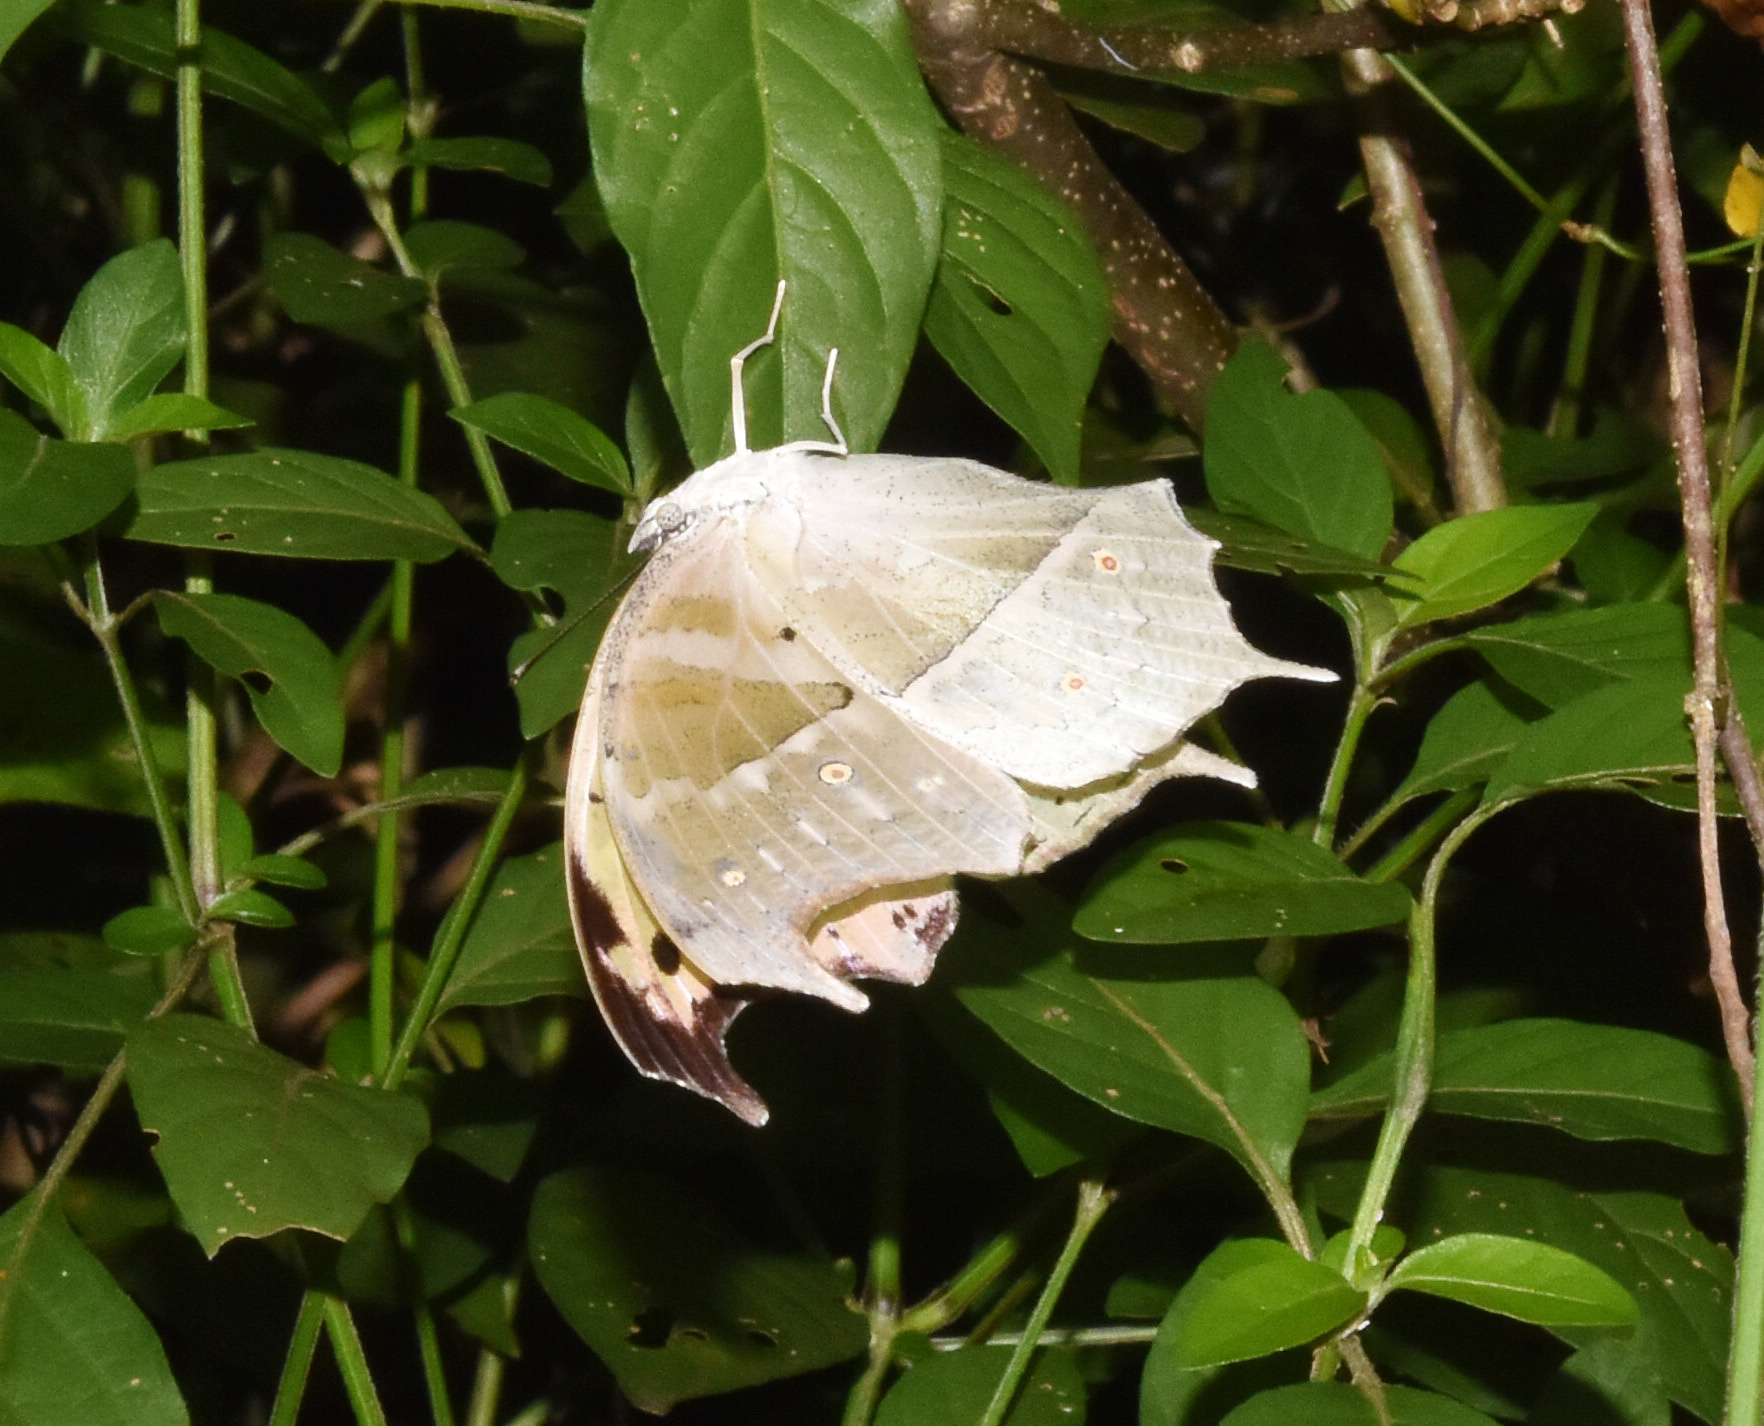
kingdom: Animalia
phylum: Arthropoda
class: Insecta
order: Lepidoptera
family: Nymphalidae
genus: Salamis
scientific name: Salamis Protogoniomorpha parhassus
